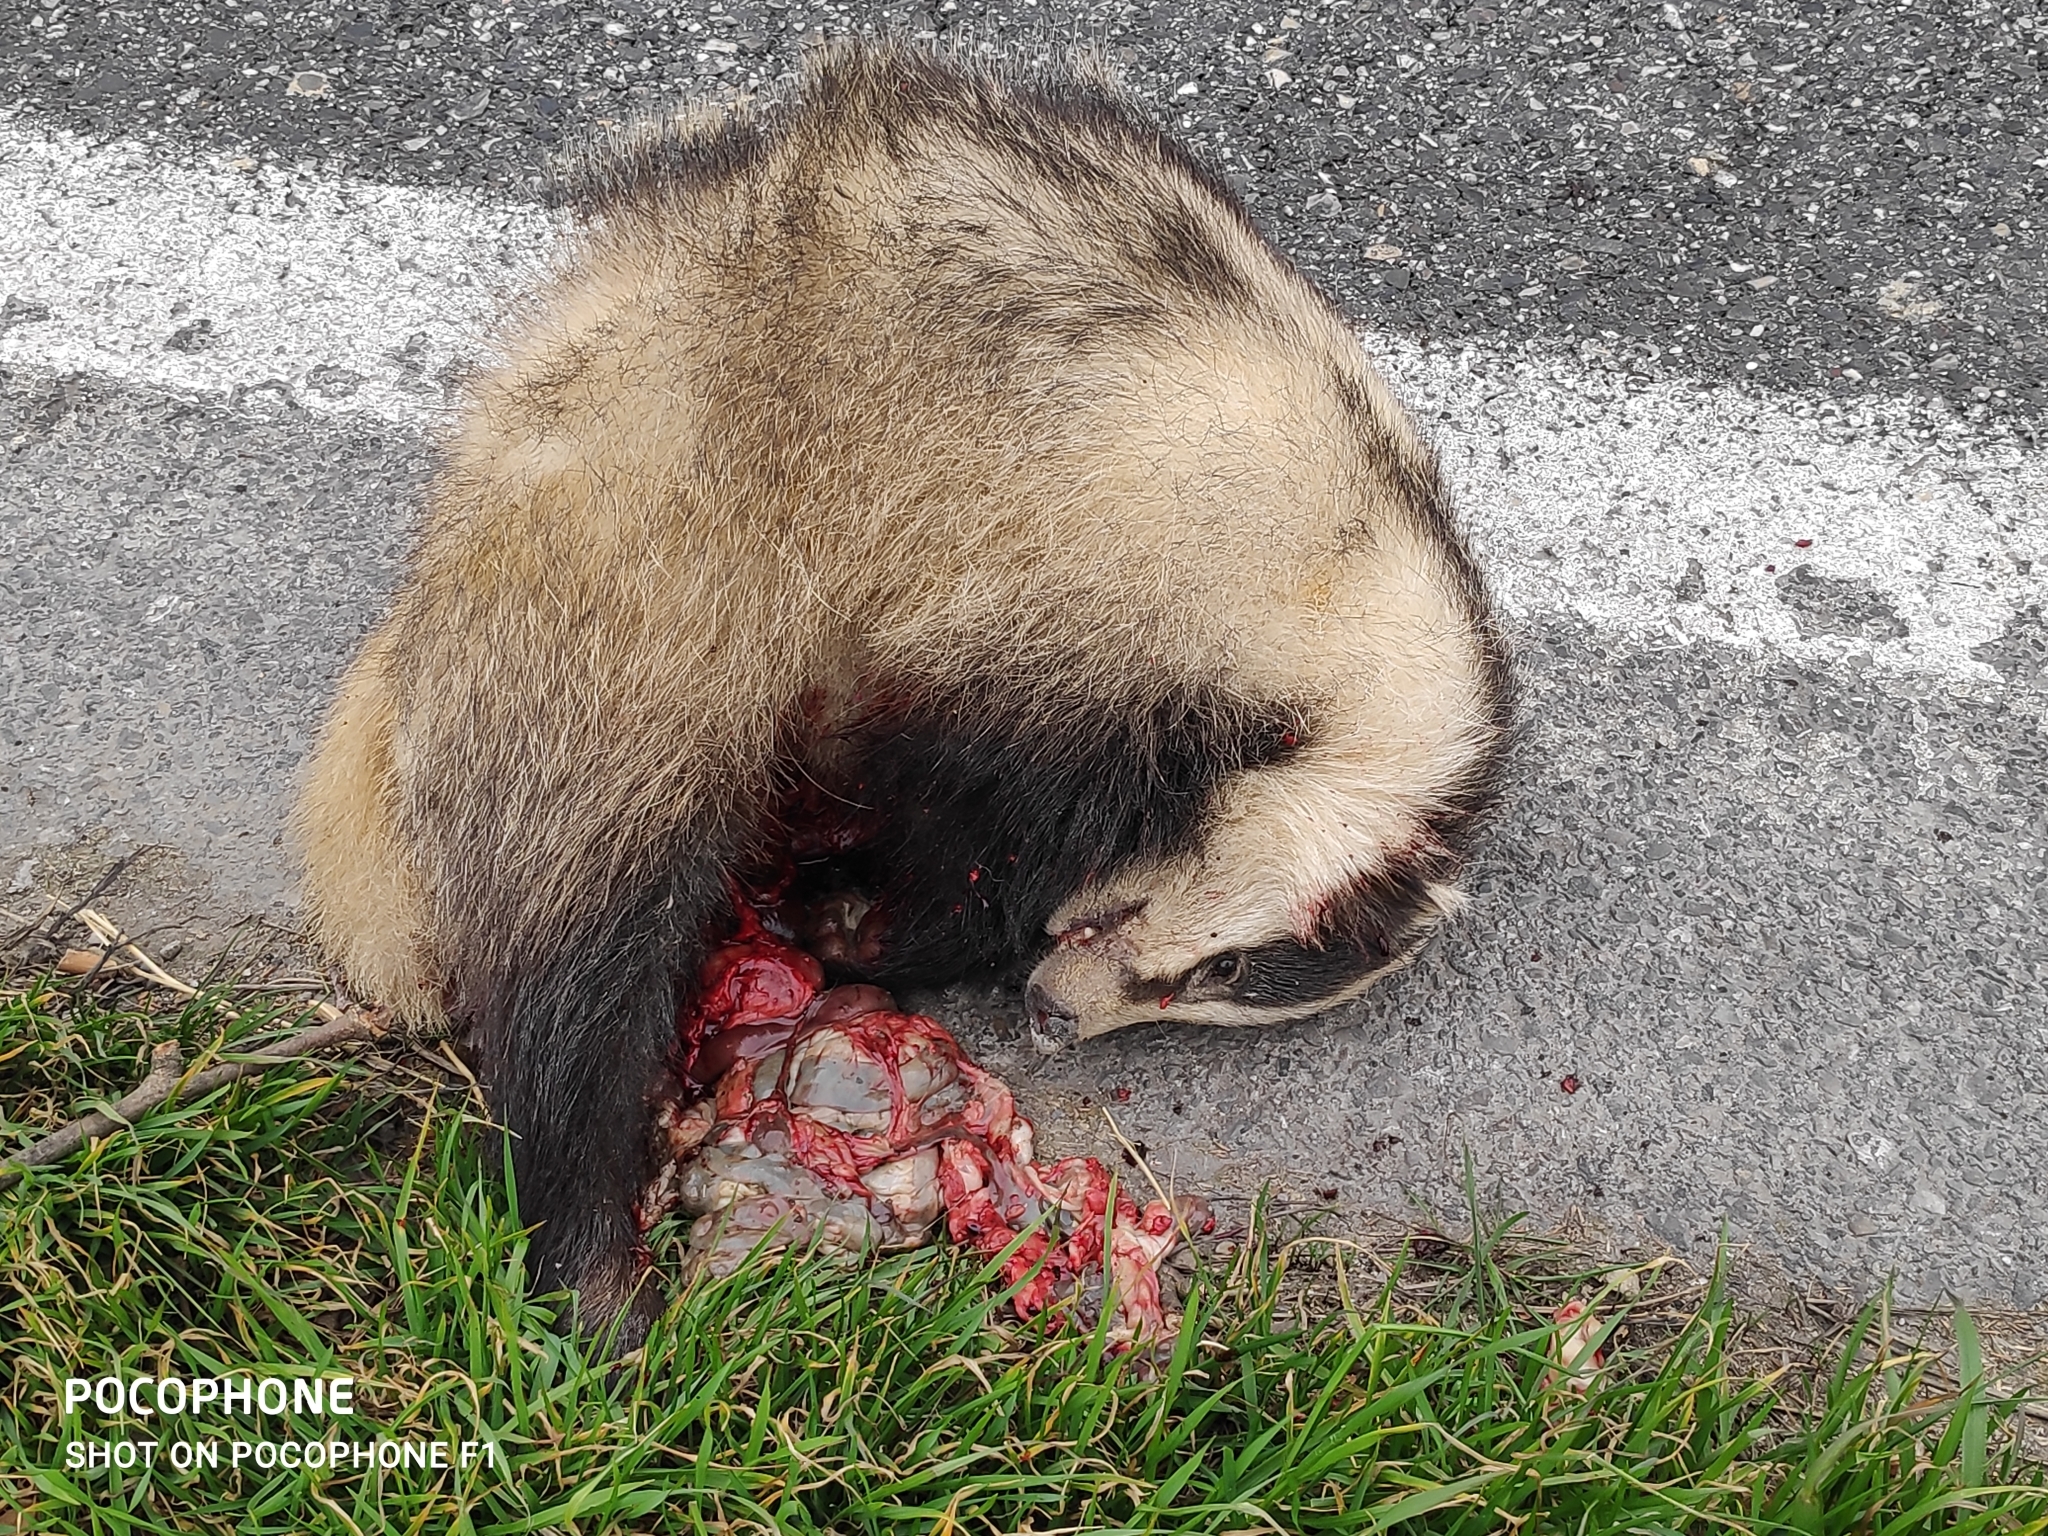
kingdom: Animalia
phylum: Chordata
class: Mammalia
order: Carnivora
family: Mustelidae
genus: Meles
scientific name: Meles meles
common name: Eurasian badger
